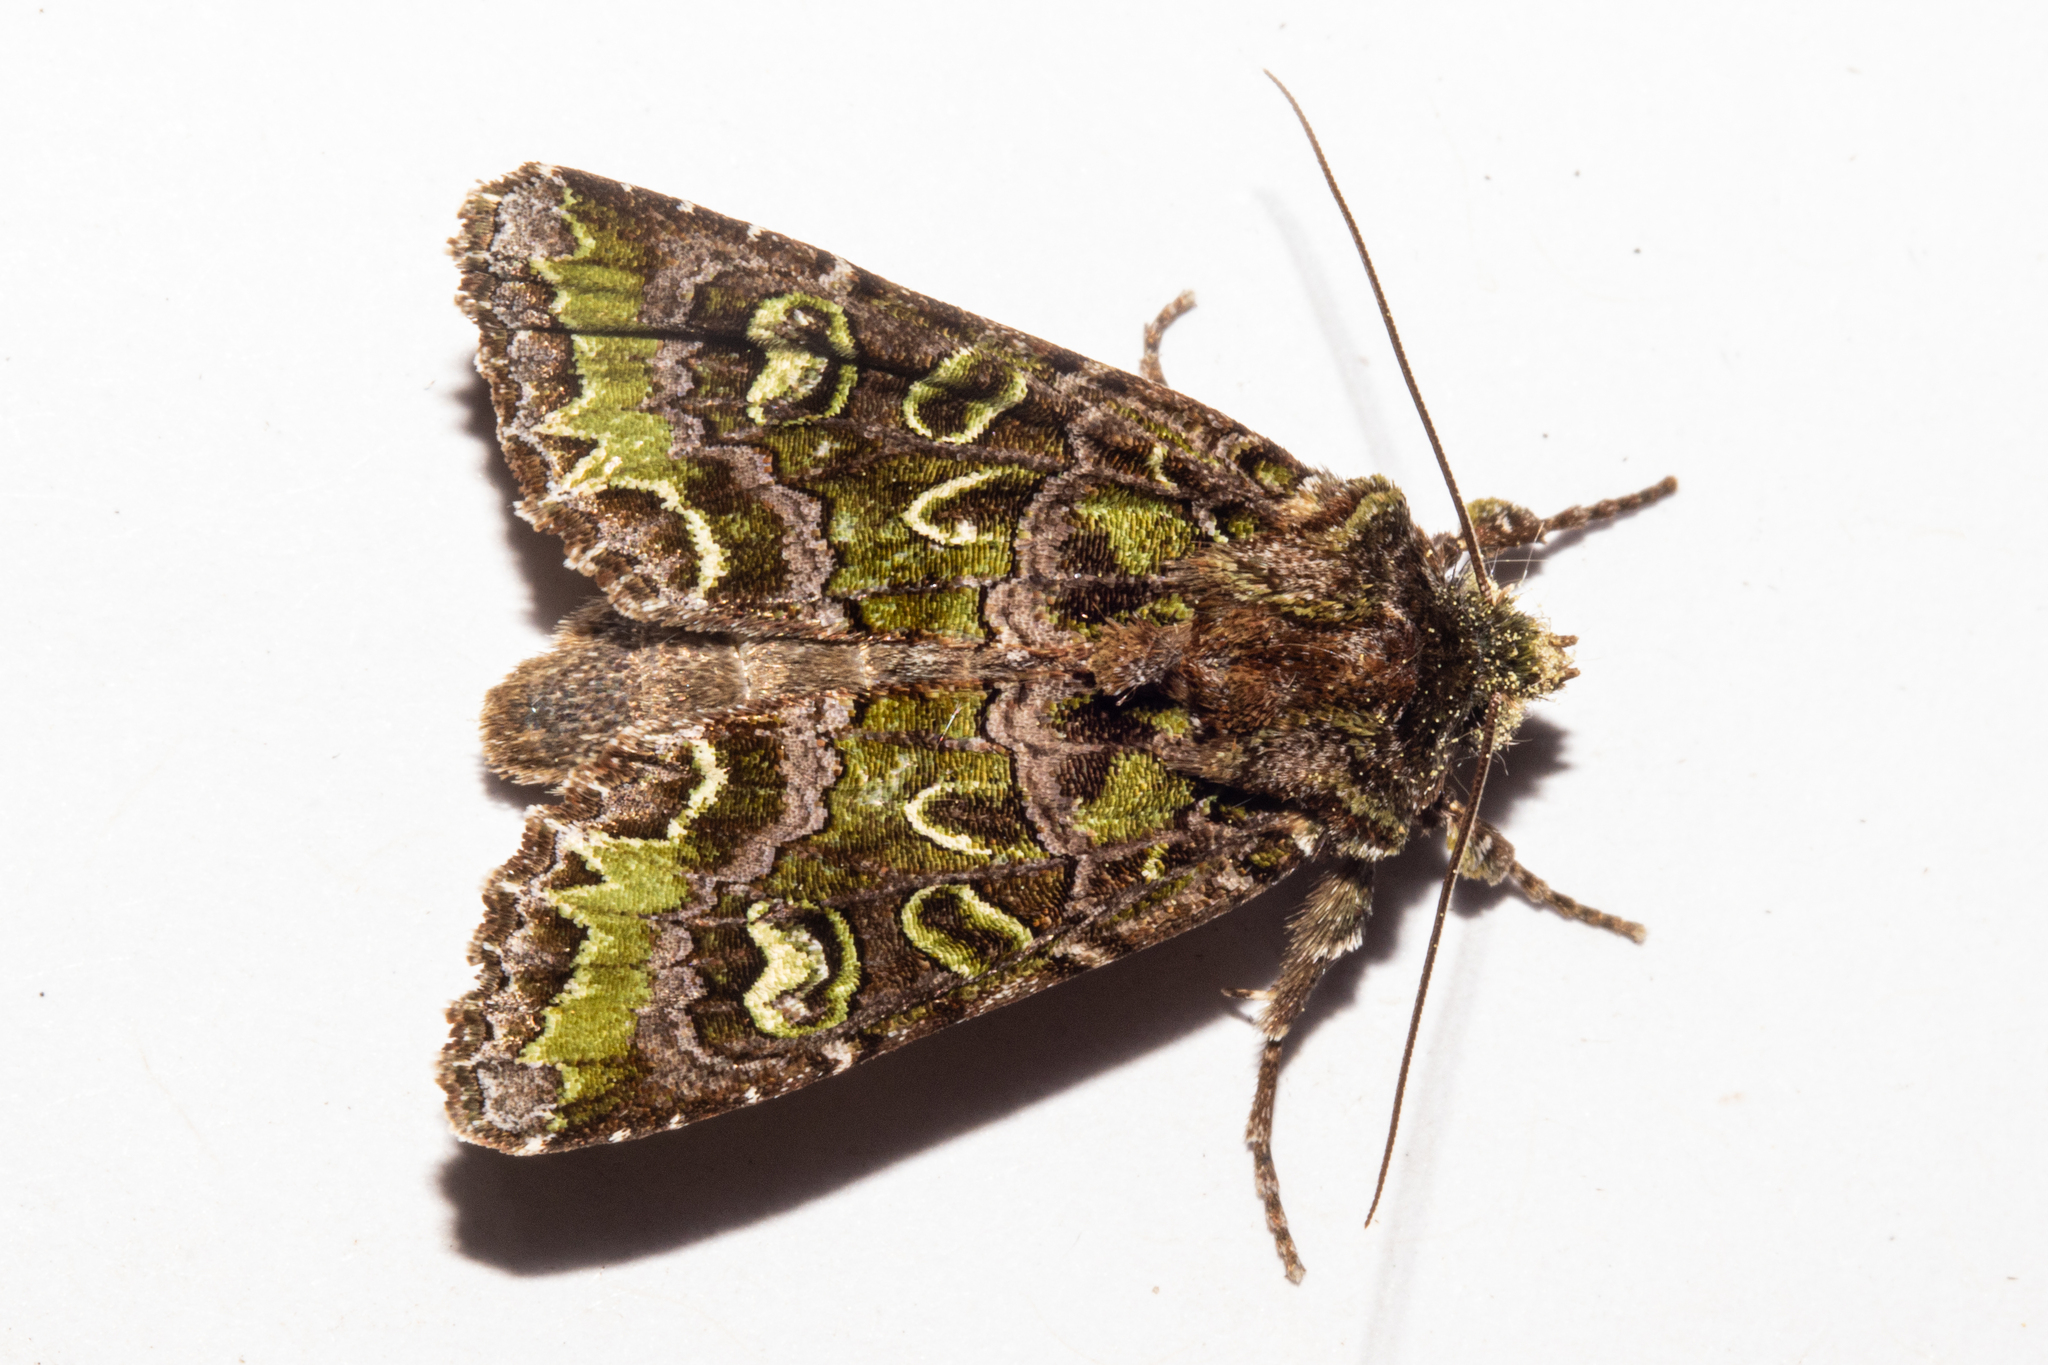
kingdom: Animalia
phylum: Arthropoda
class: Insecta
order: Lepidoptera
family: Noctuidae
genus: Ichneutica
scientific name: Ichneutica chlorodonta
